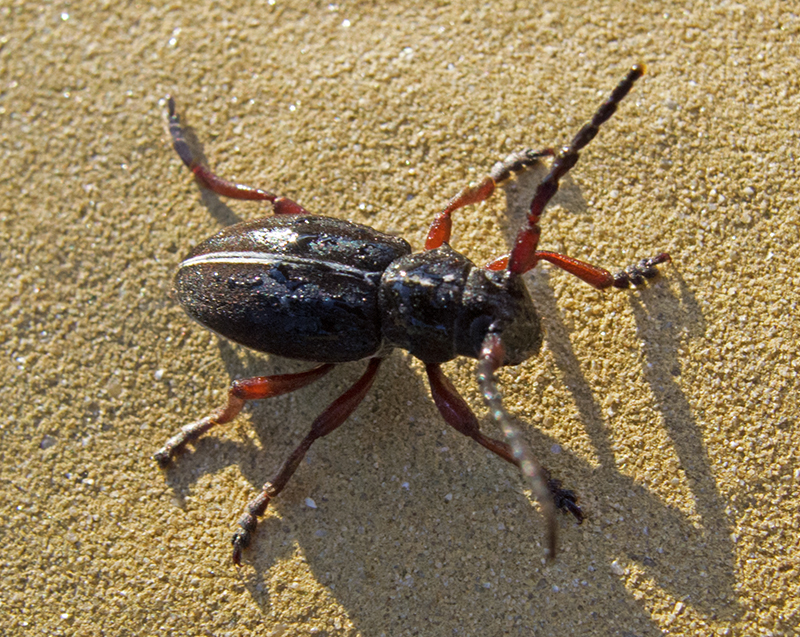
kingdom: Animalia
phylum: Arthropoda
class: Insecta
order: Coleoptera
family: Cerambycidae
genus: Dorcadion
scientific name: Dorcadion pedestre
